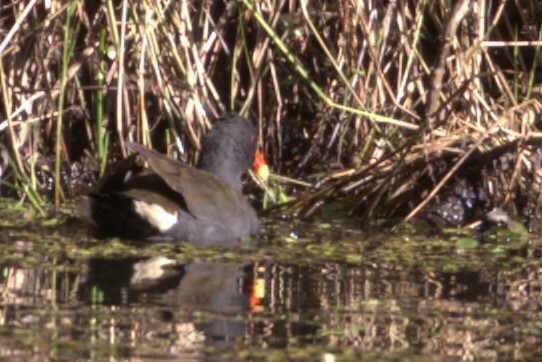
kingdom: Animalia
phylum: Chordata
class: Aves
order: Gruiformes
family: Rallidae
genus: Gallinula
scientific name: Gallinula tenebrosa
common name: Dusky moorhen
